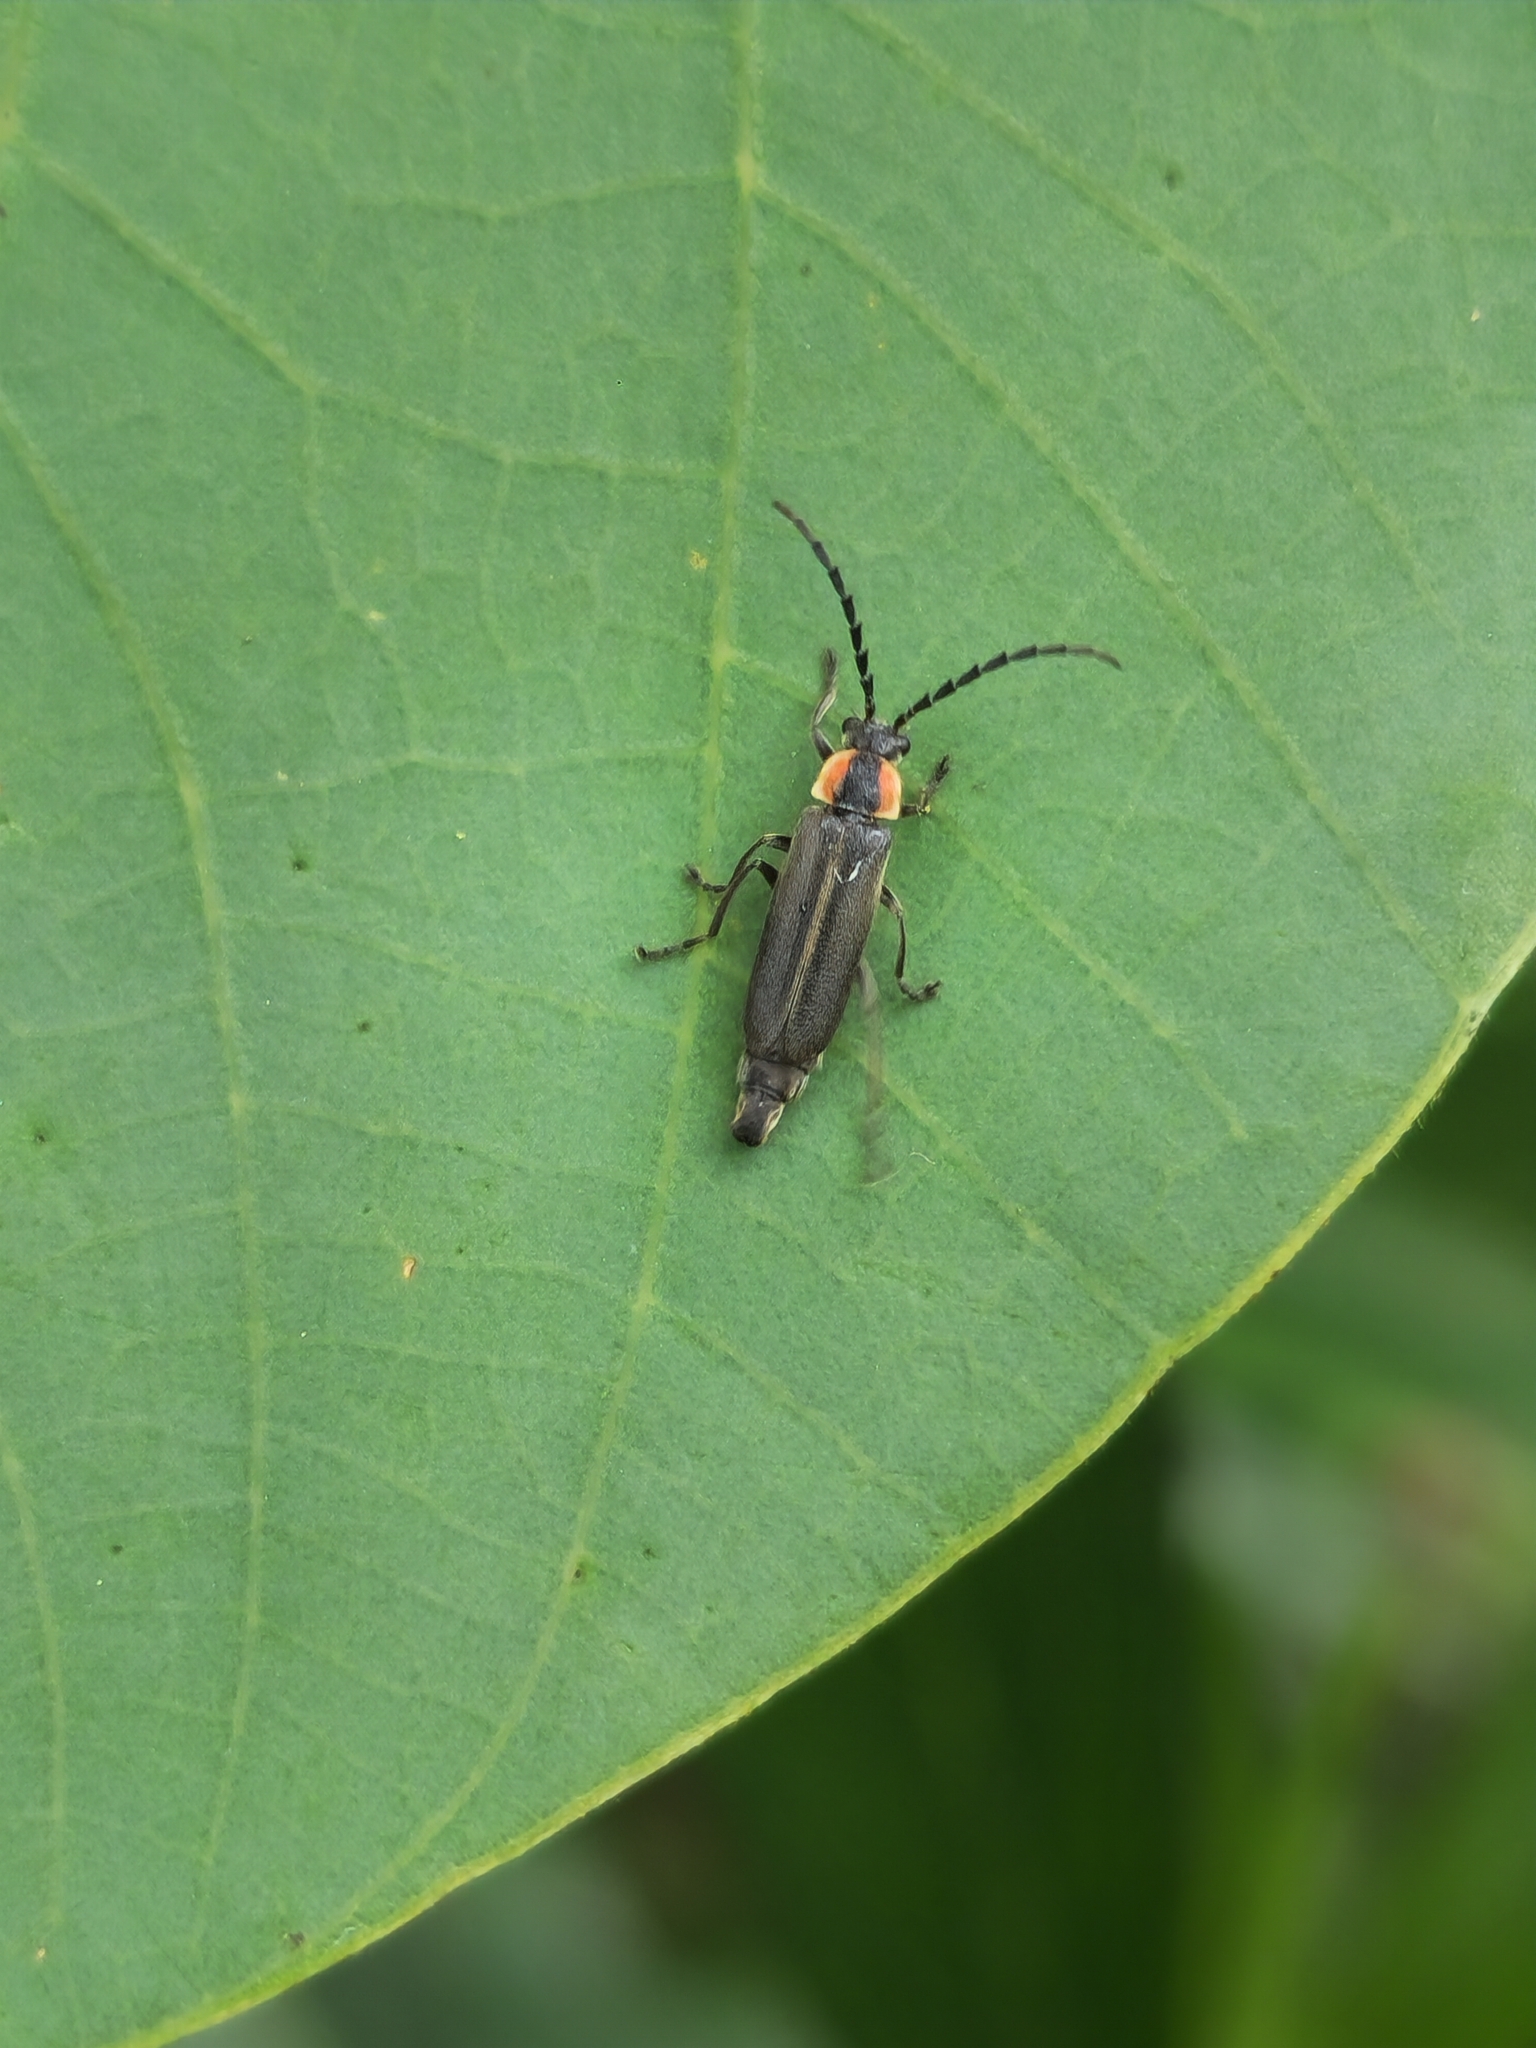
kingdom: Animalia
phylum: Arthropoda
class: Insecta
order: Coleoptera
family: Cantharidae
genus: Discodon
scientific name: Discodon
